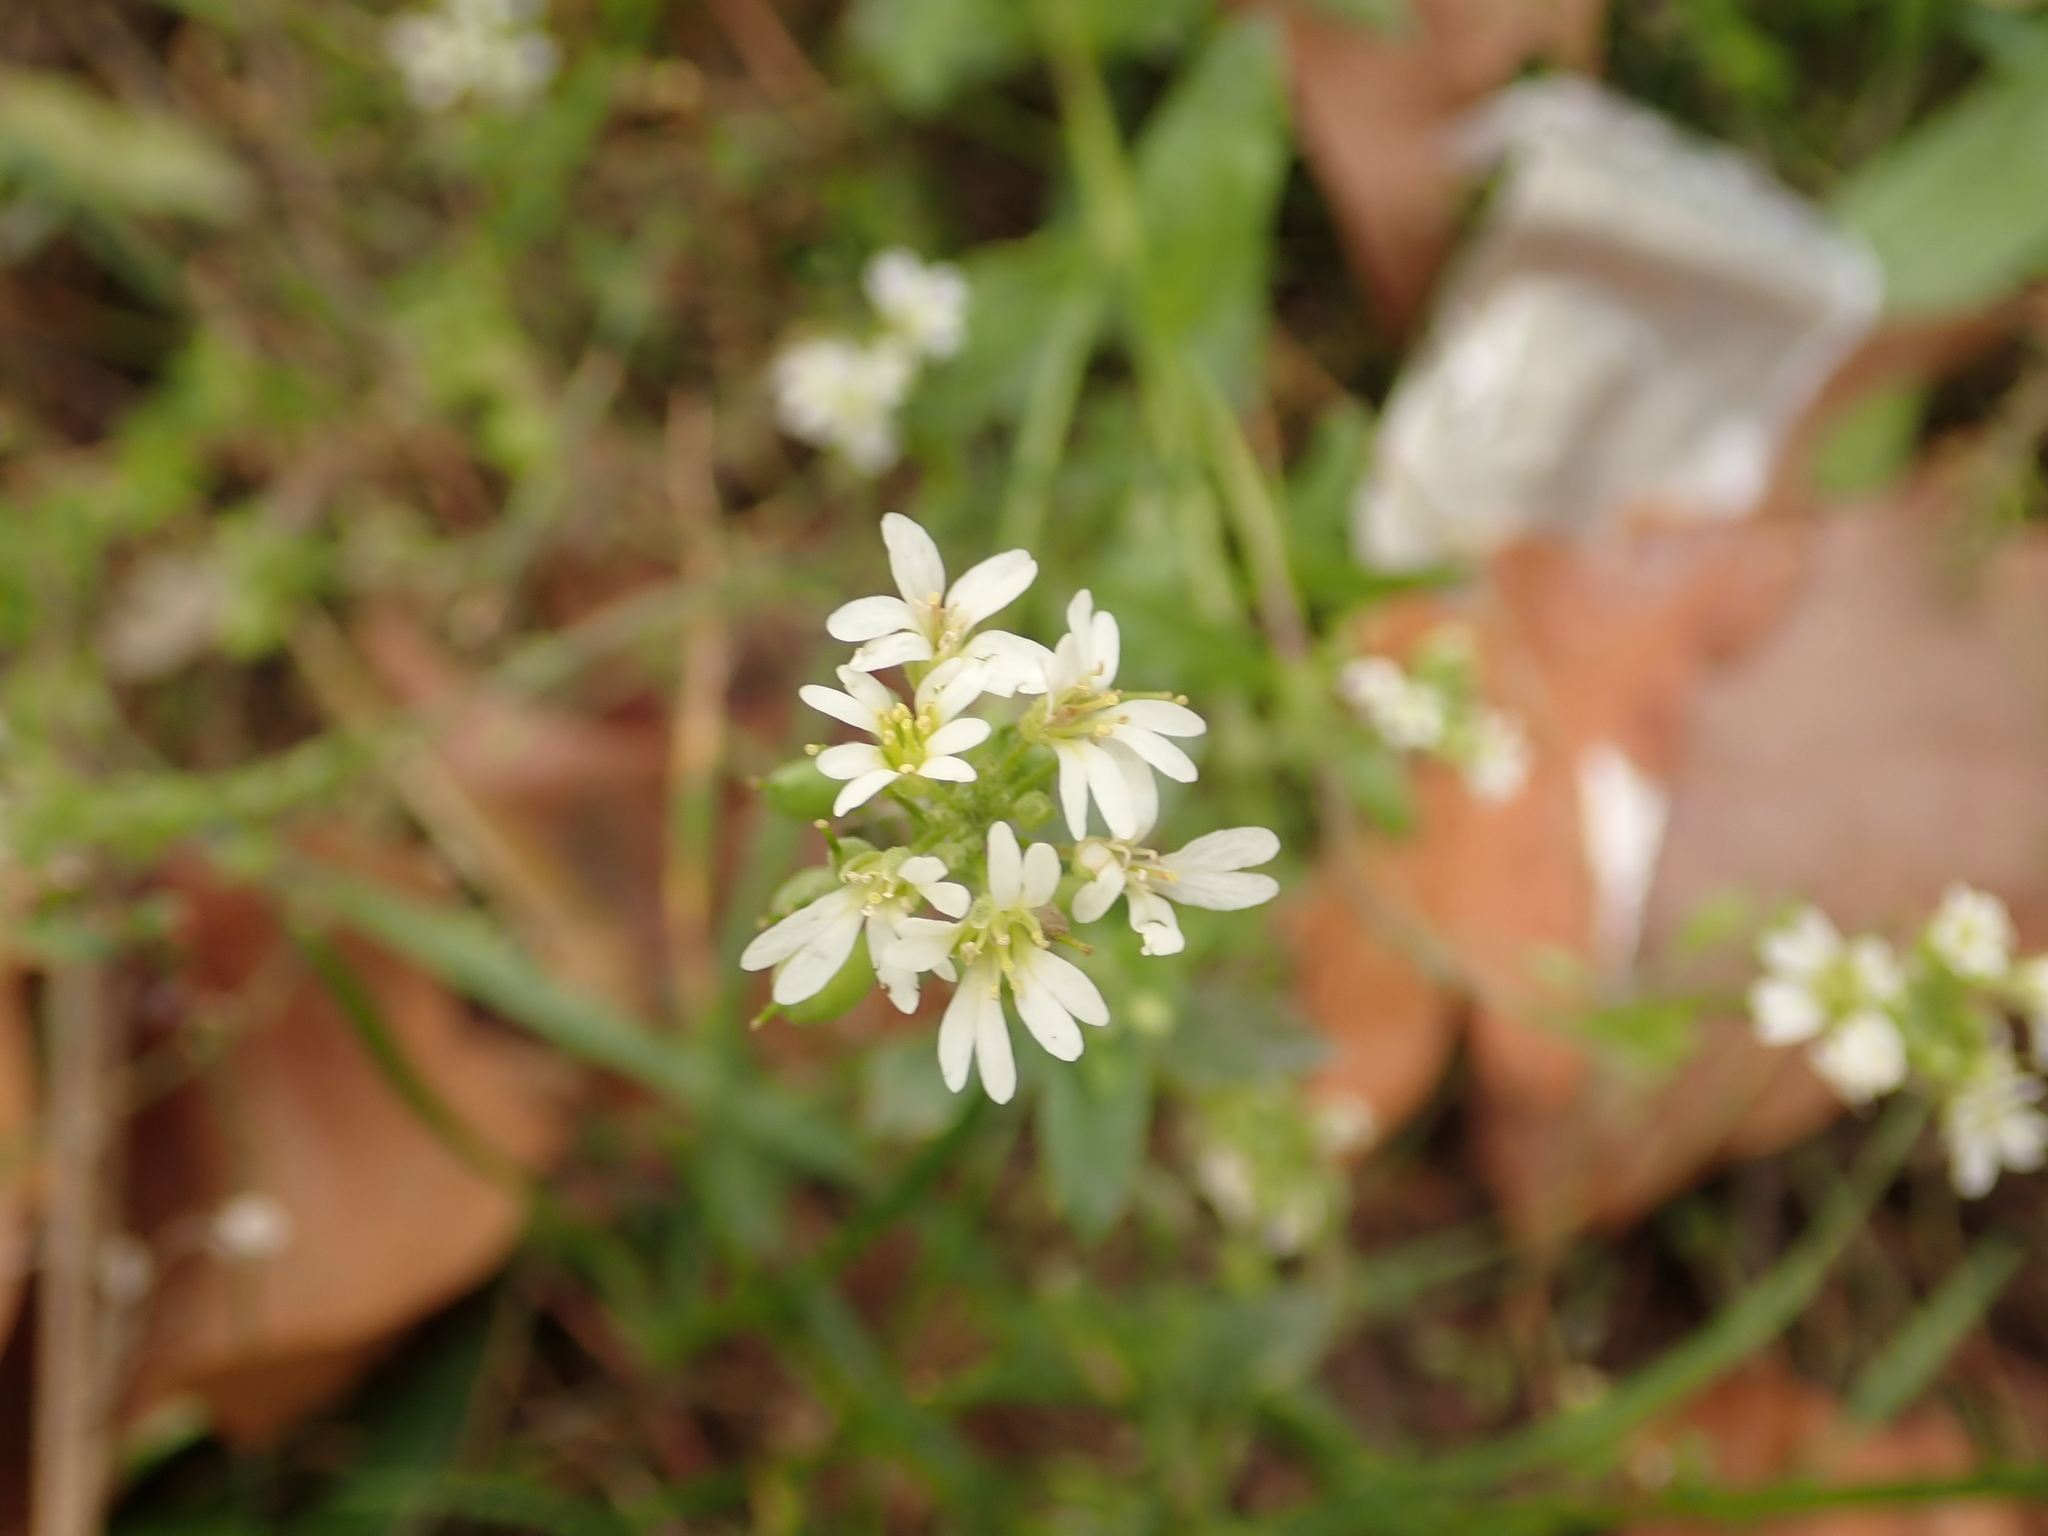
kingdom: Plantae
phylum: Tracheophyta
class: Magnoliopsida
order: Brassicales
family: Brassicaceae
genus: Berteroa
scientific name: Berteroa incana
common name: Hoary alison
